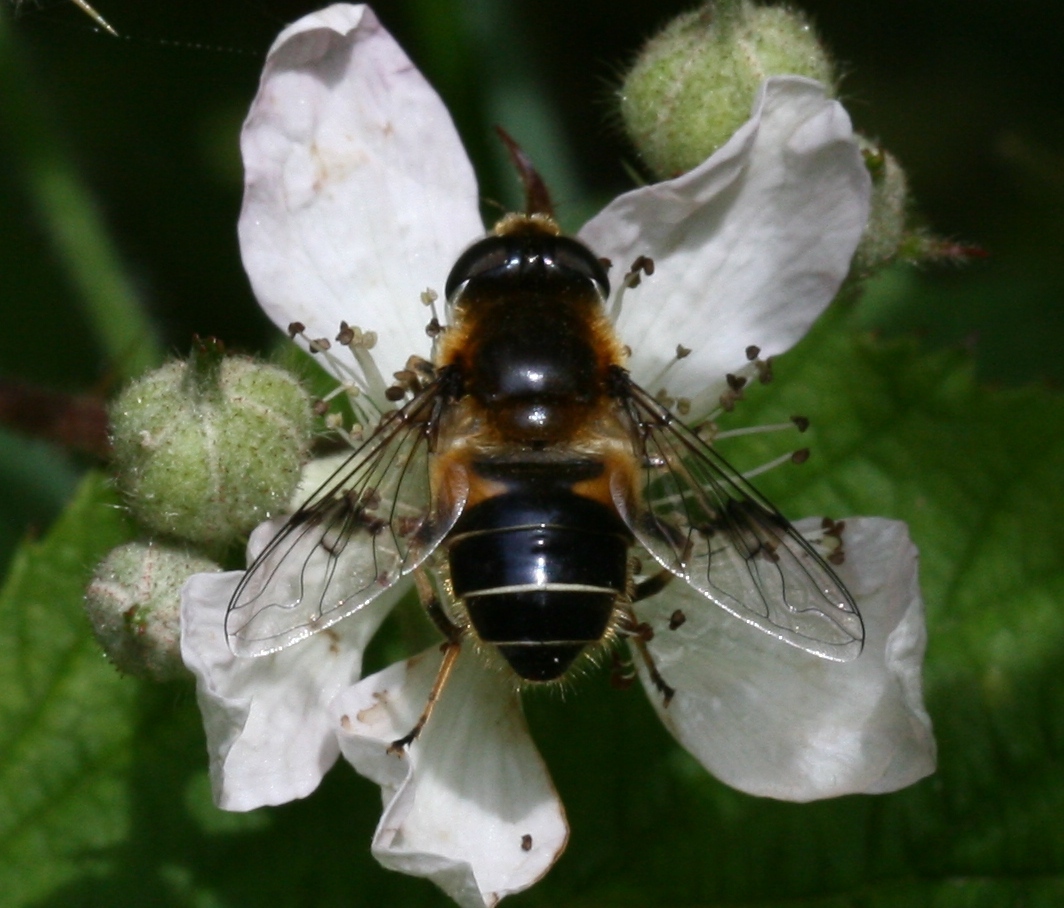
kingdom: Animalia
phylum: Arthropoda
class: Insecta
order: Diptera
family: Syrphidae
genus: Eristalis
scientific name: Eristalis rupium
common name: Hover fly
